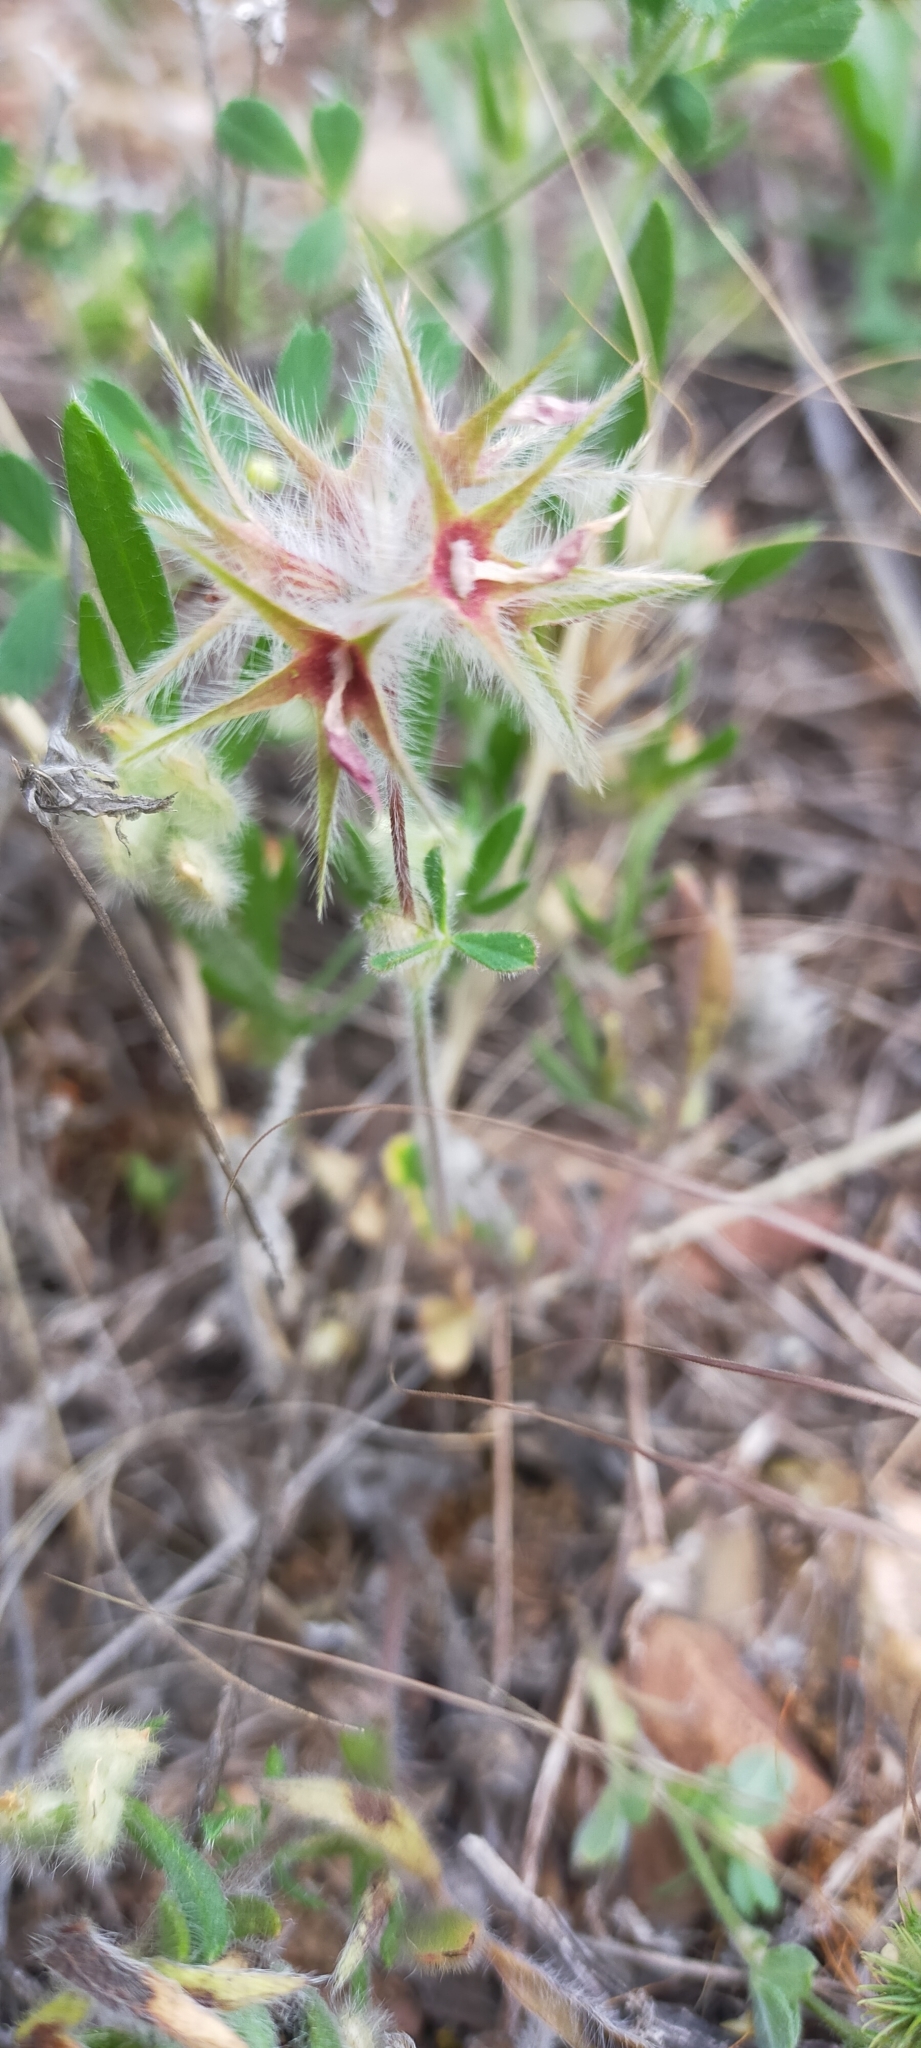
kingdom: Plantae
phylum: Tracheophyta
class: Magnoliopsida
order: Fabales
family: Fabaceae
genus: Trifolium
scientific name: Trifolium stellatum
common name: Starry clover
